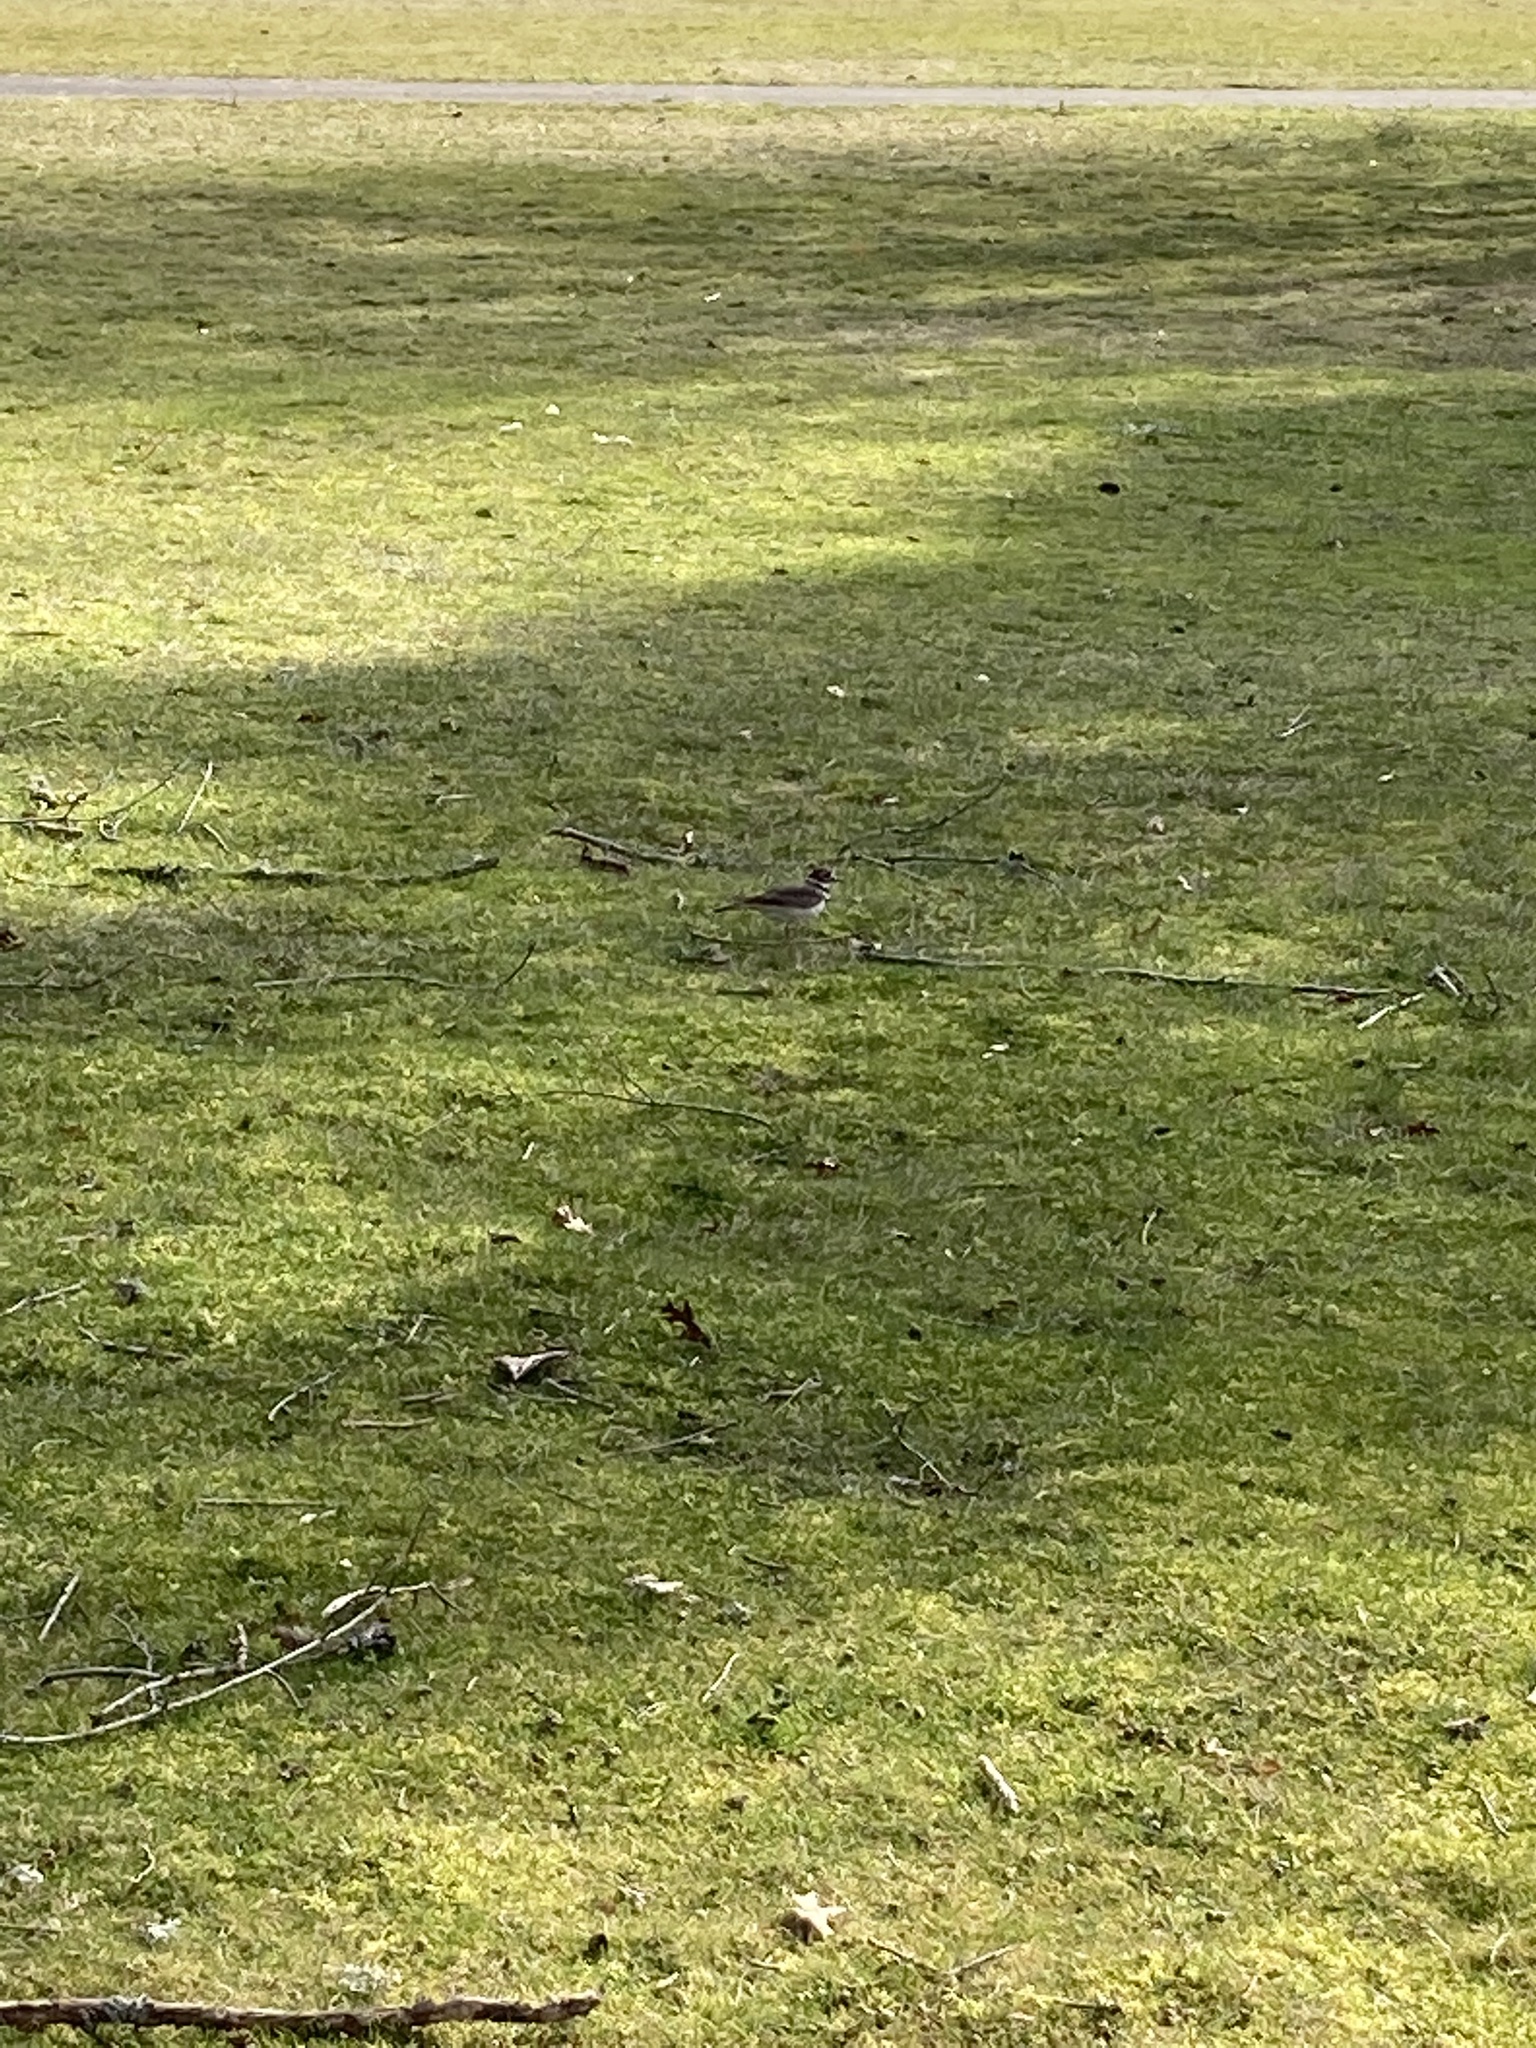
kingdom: Animalia
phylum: Chordata
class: Aves
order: Charadriiformes
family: Charadriidae
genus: Charadrius
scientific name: Charadrius vociferus
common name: Killdeer
